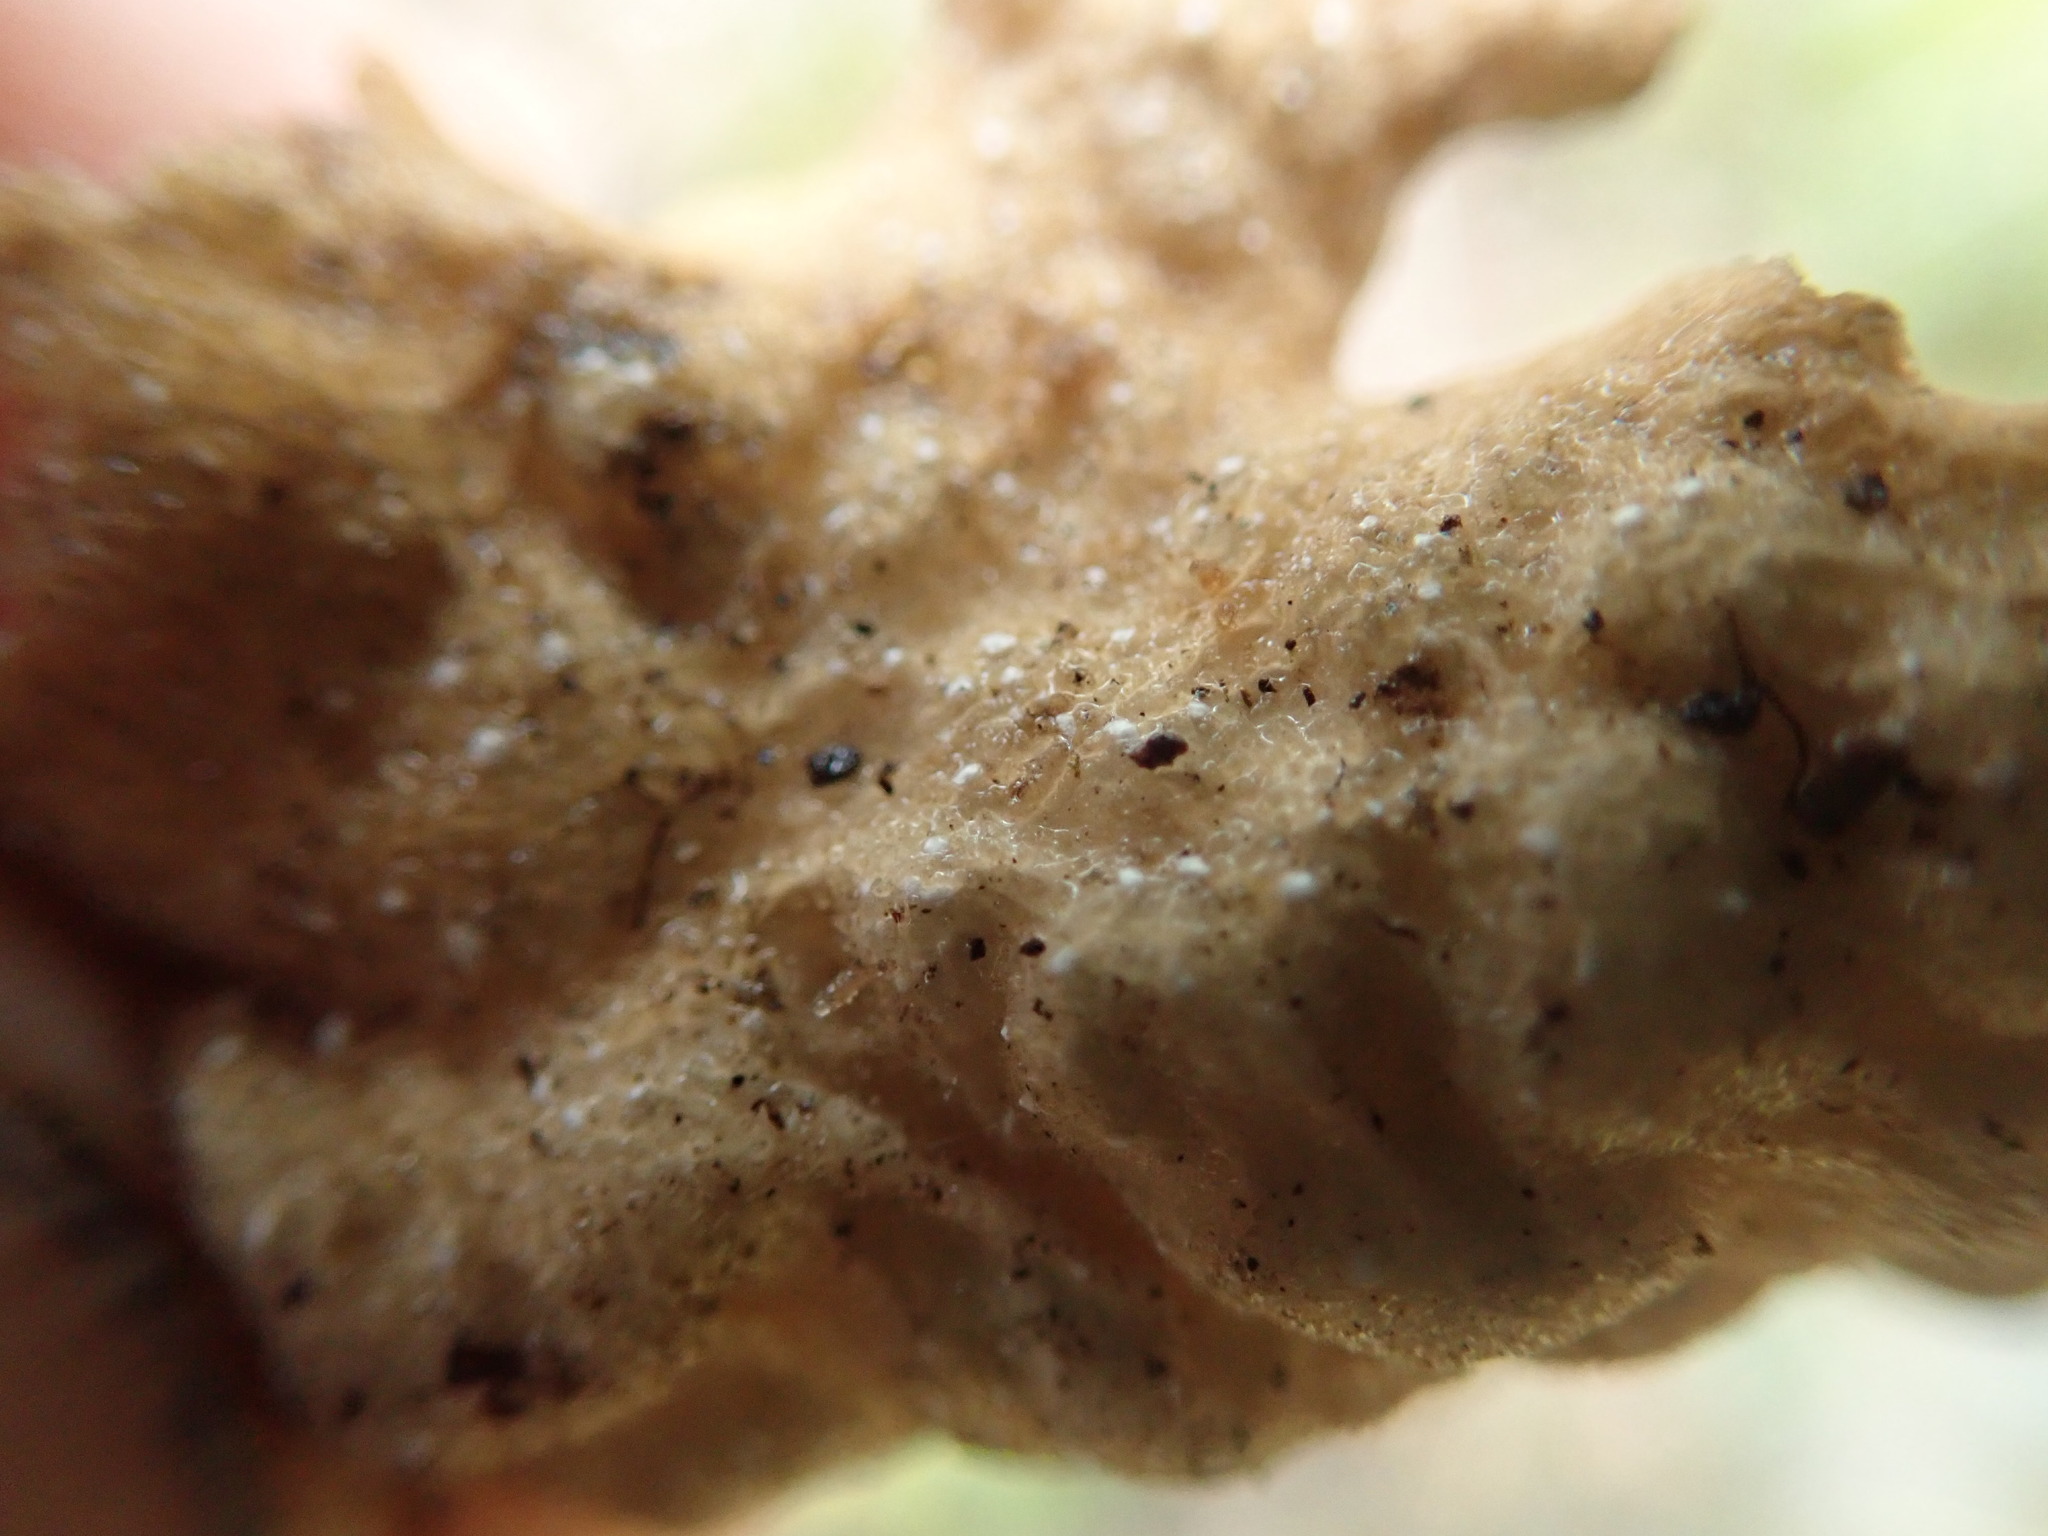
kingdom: Fungi
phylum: Ascomycota
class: Lecanoromycetes
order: Peltigerales
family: Lobariaceae
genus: Lobaria
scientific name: Lobaria anthraspis
